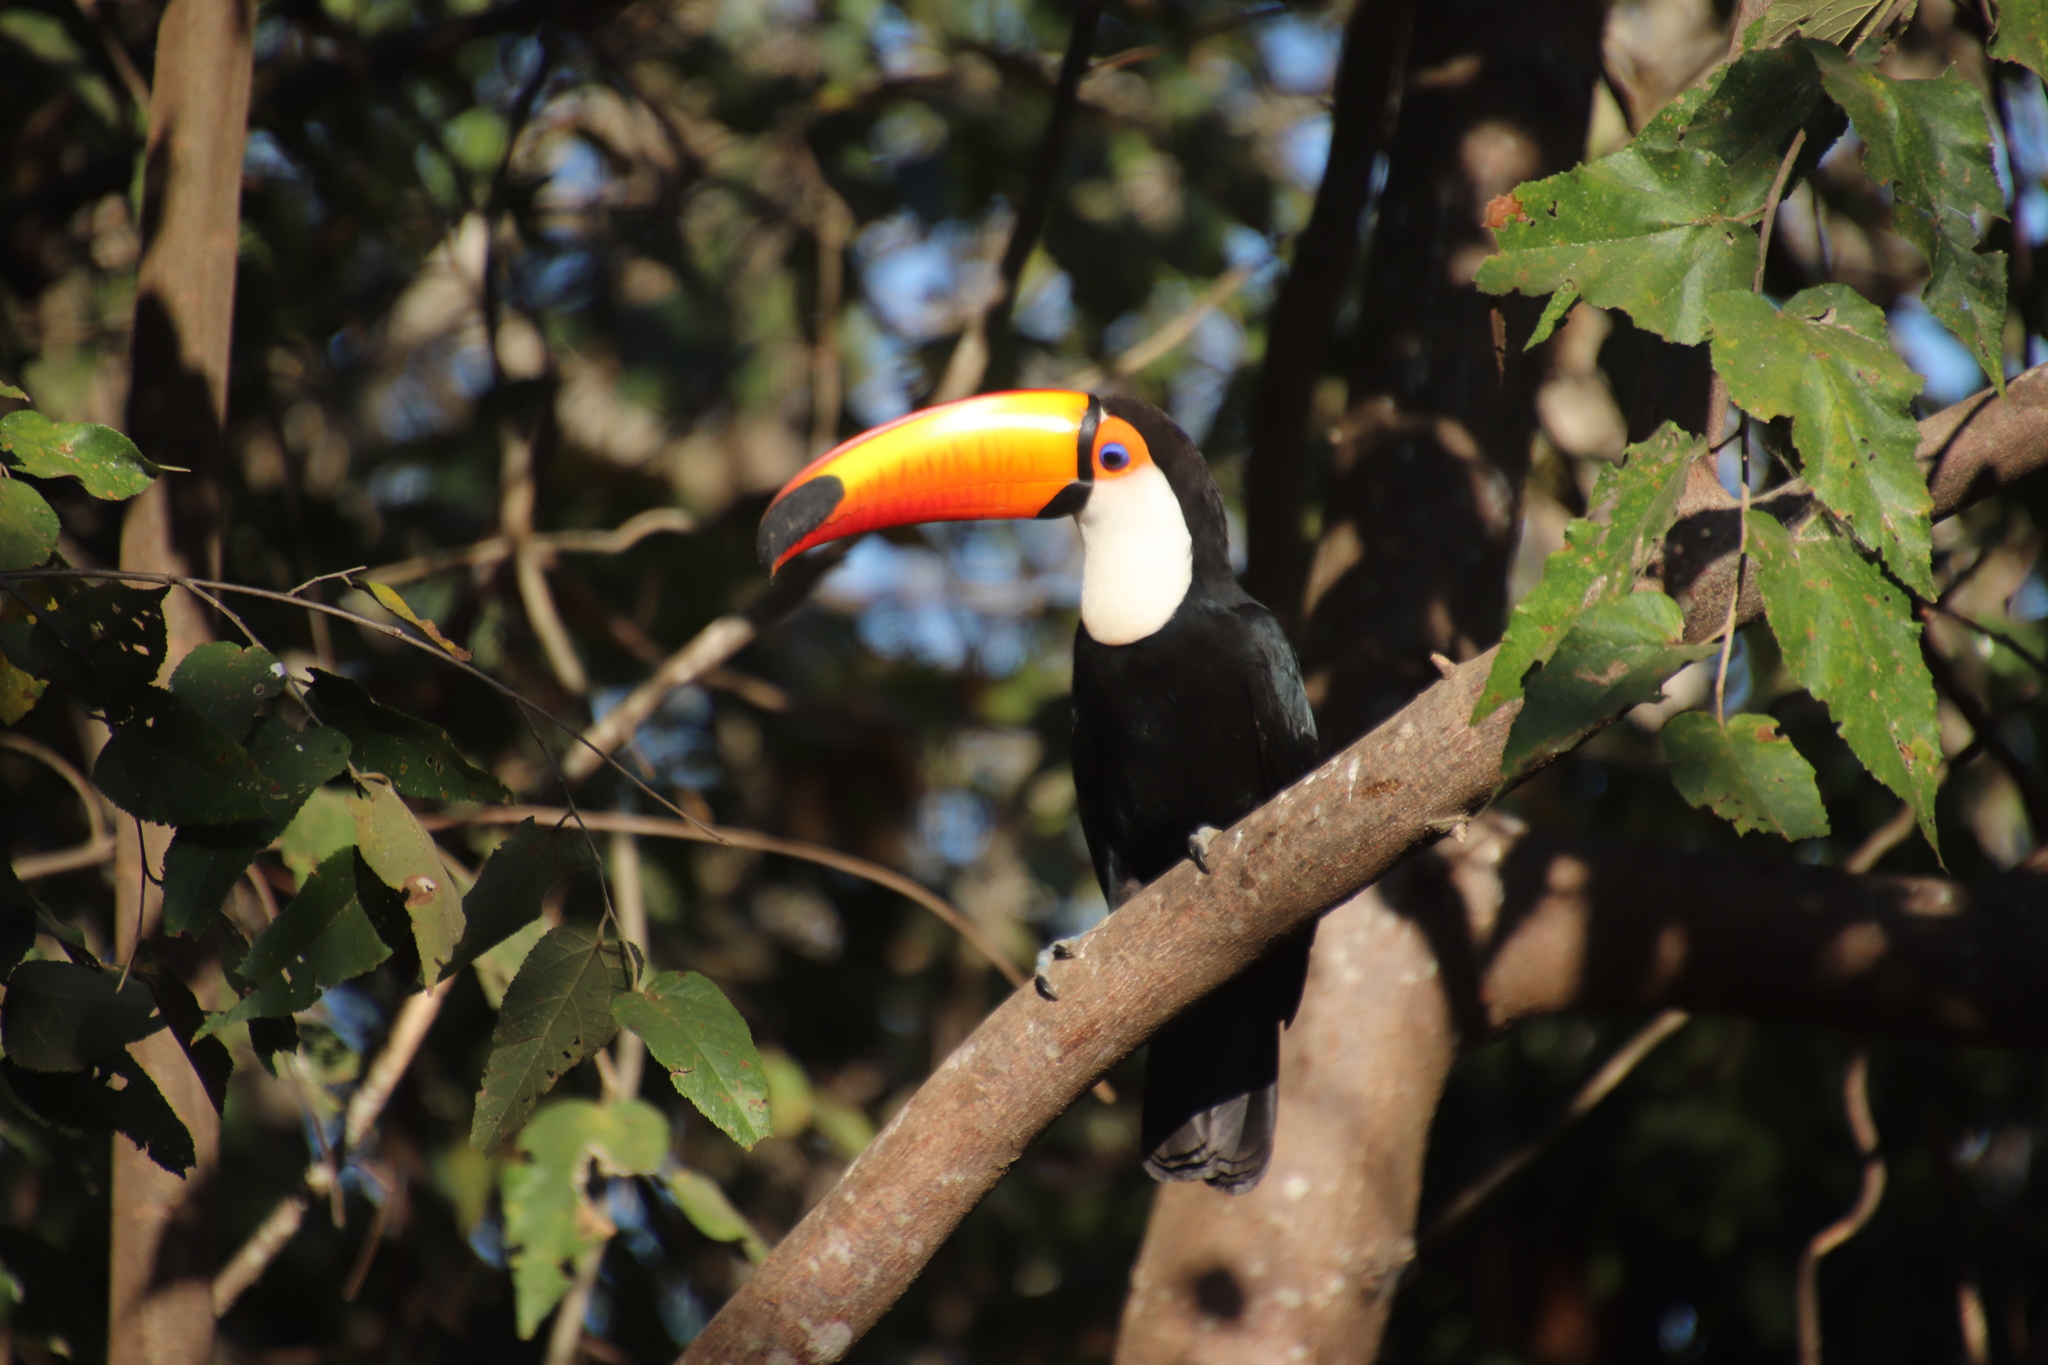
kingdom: Animalia
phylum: Chordata
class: Aves
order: Piciformes
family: Ramphastidae
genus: Ramphastos
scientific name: Ramphastos toco
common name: Toco toucan
